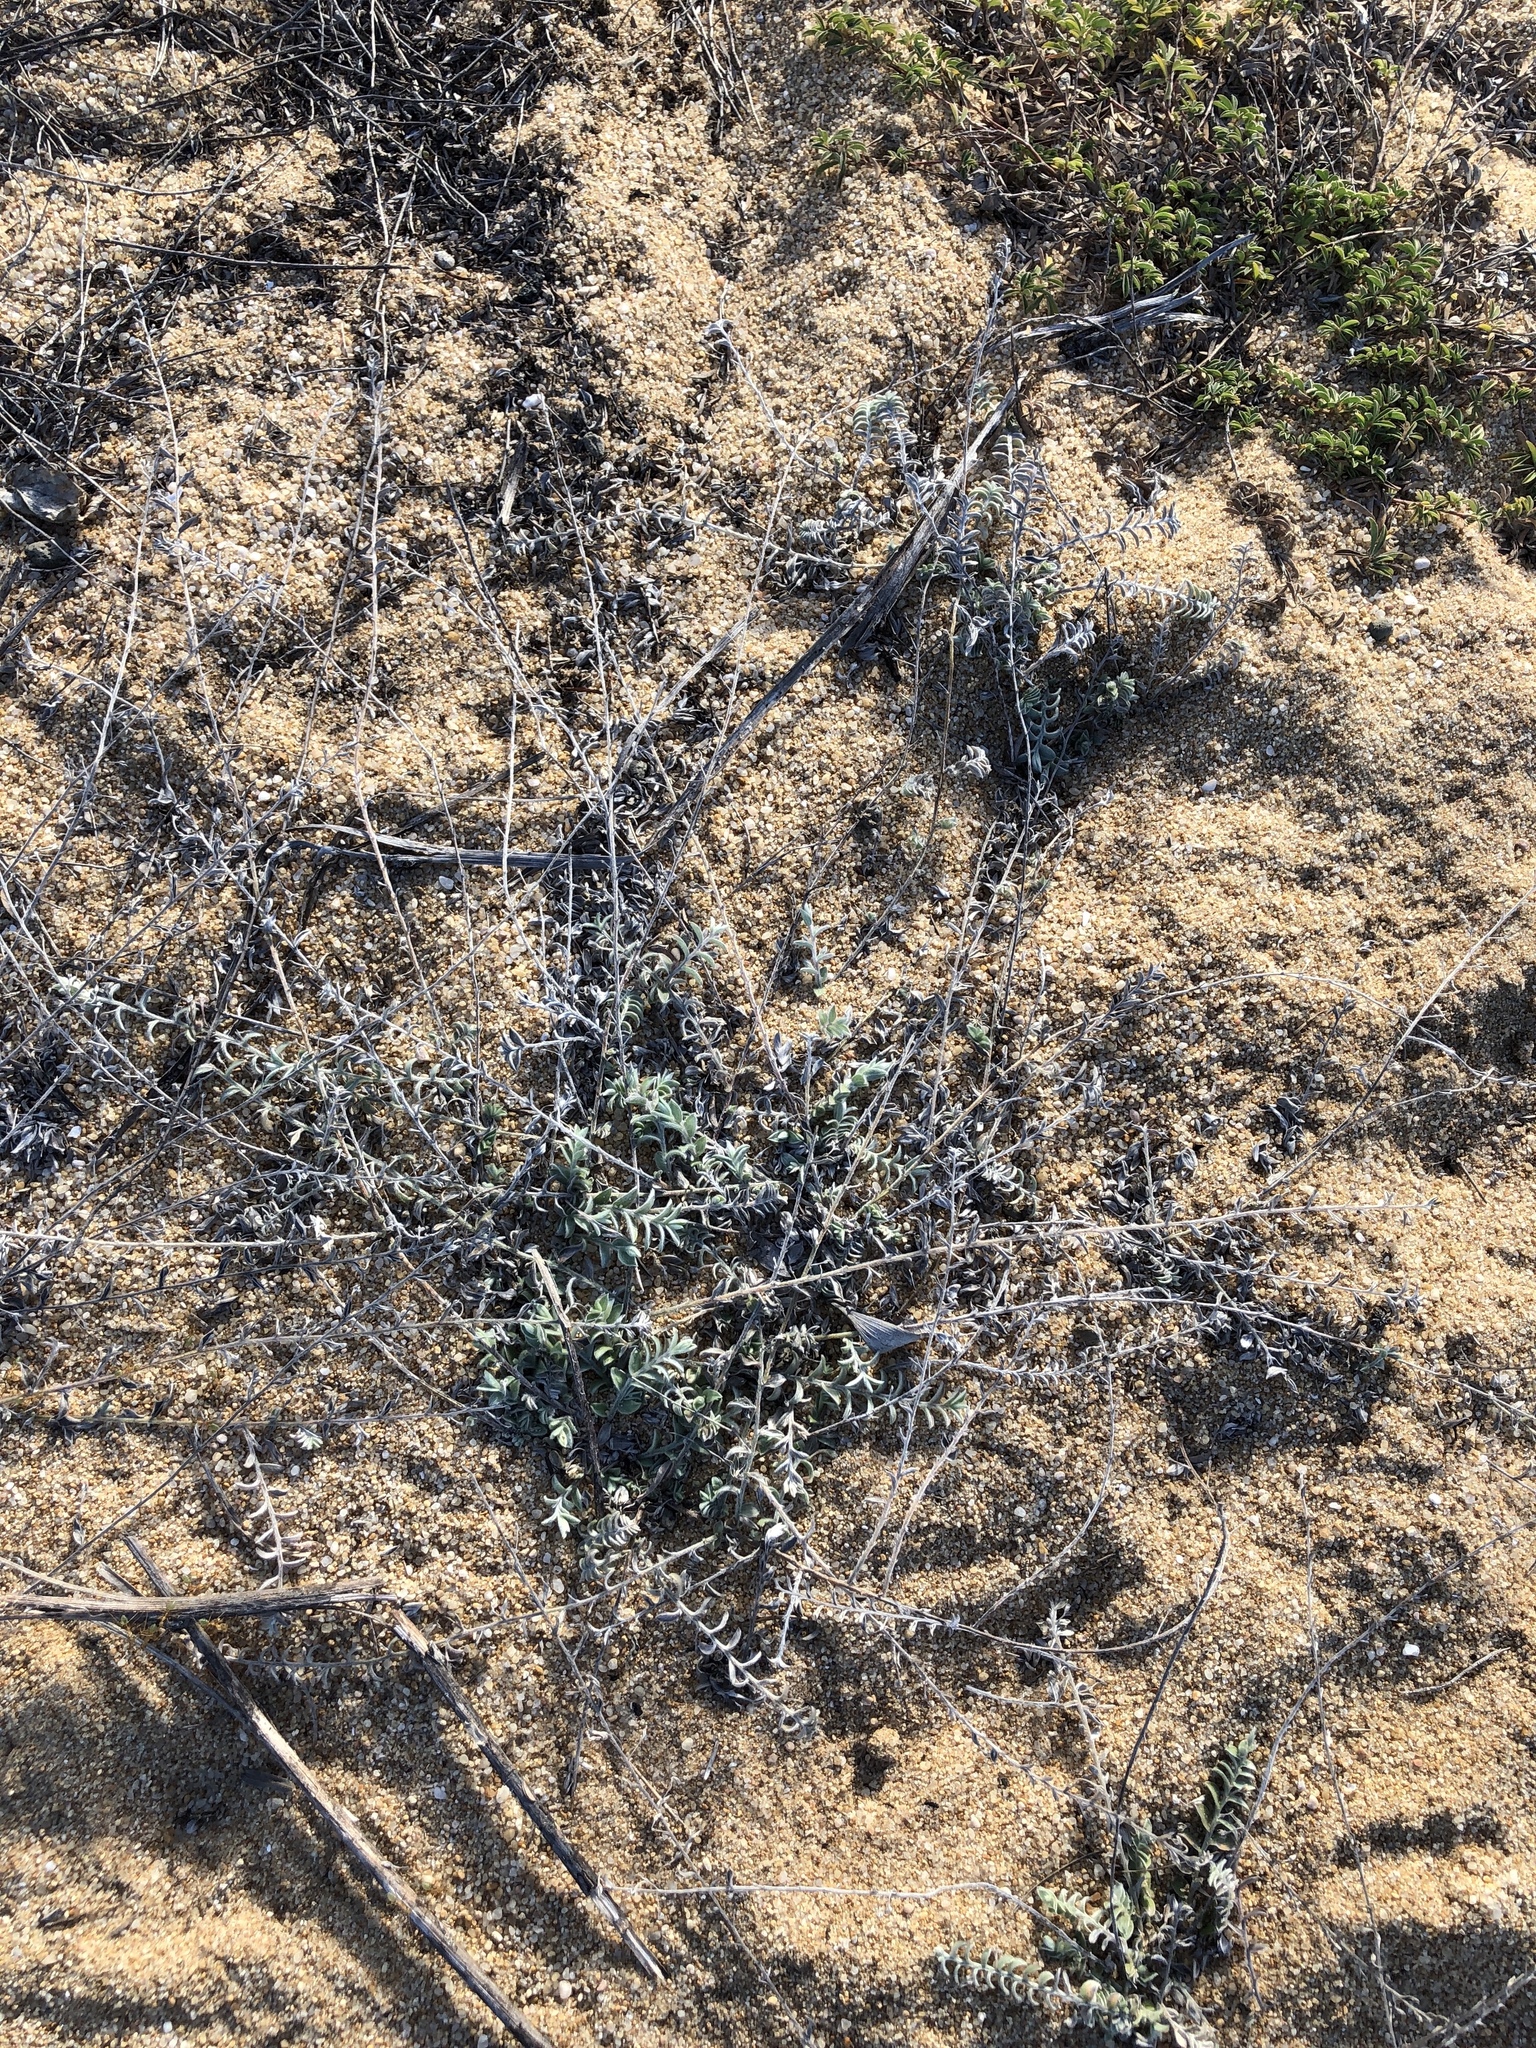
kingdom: Plantae
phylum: Tracheophyta
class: Magnoliopsida
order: Solanales
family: Convolvulaceae
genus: Evolvulus
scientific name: Evolvulus alsinoides
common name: Slender dwarf morning-glory
